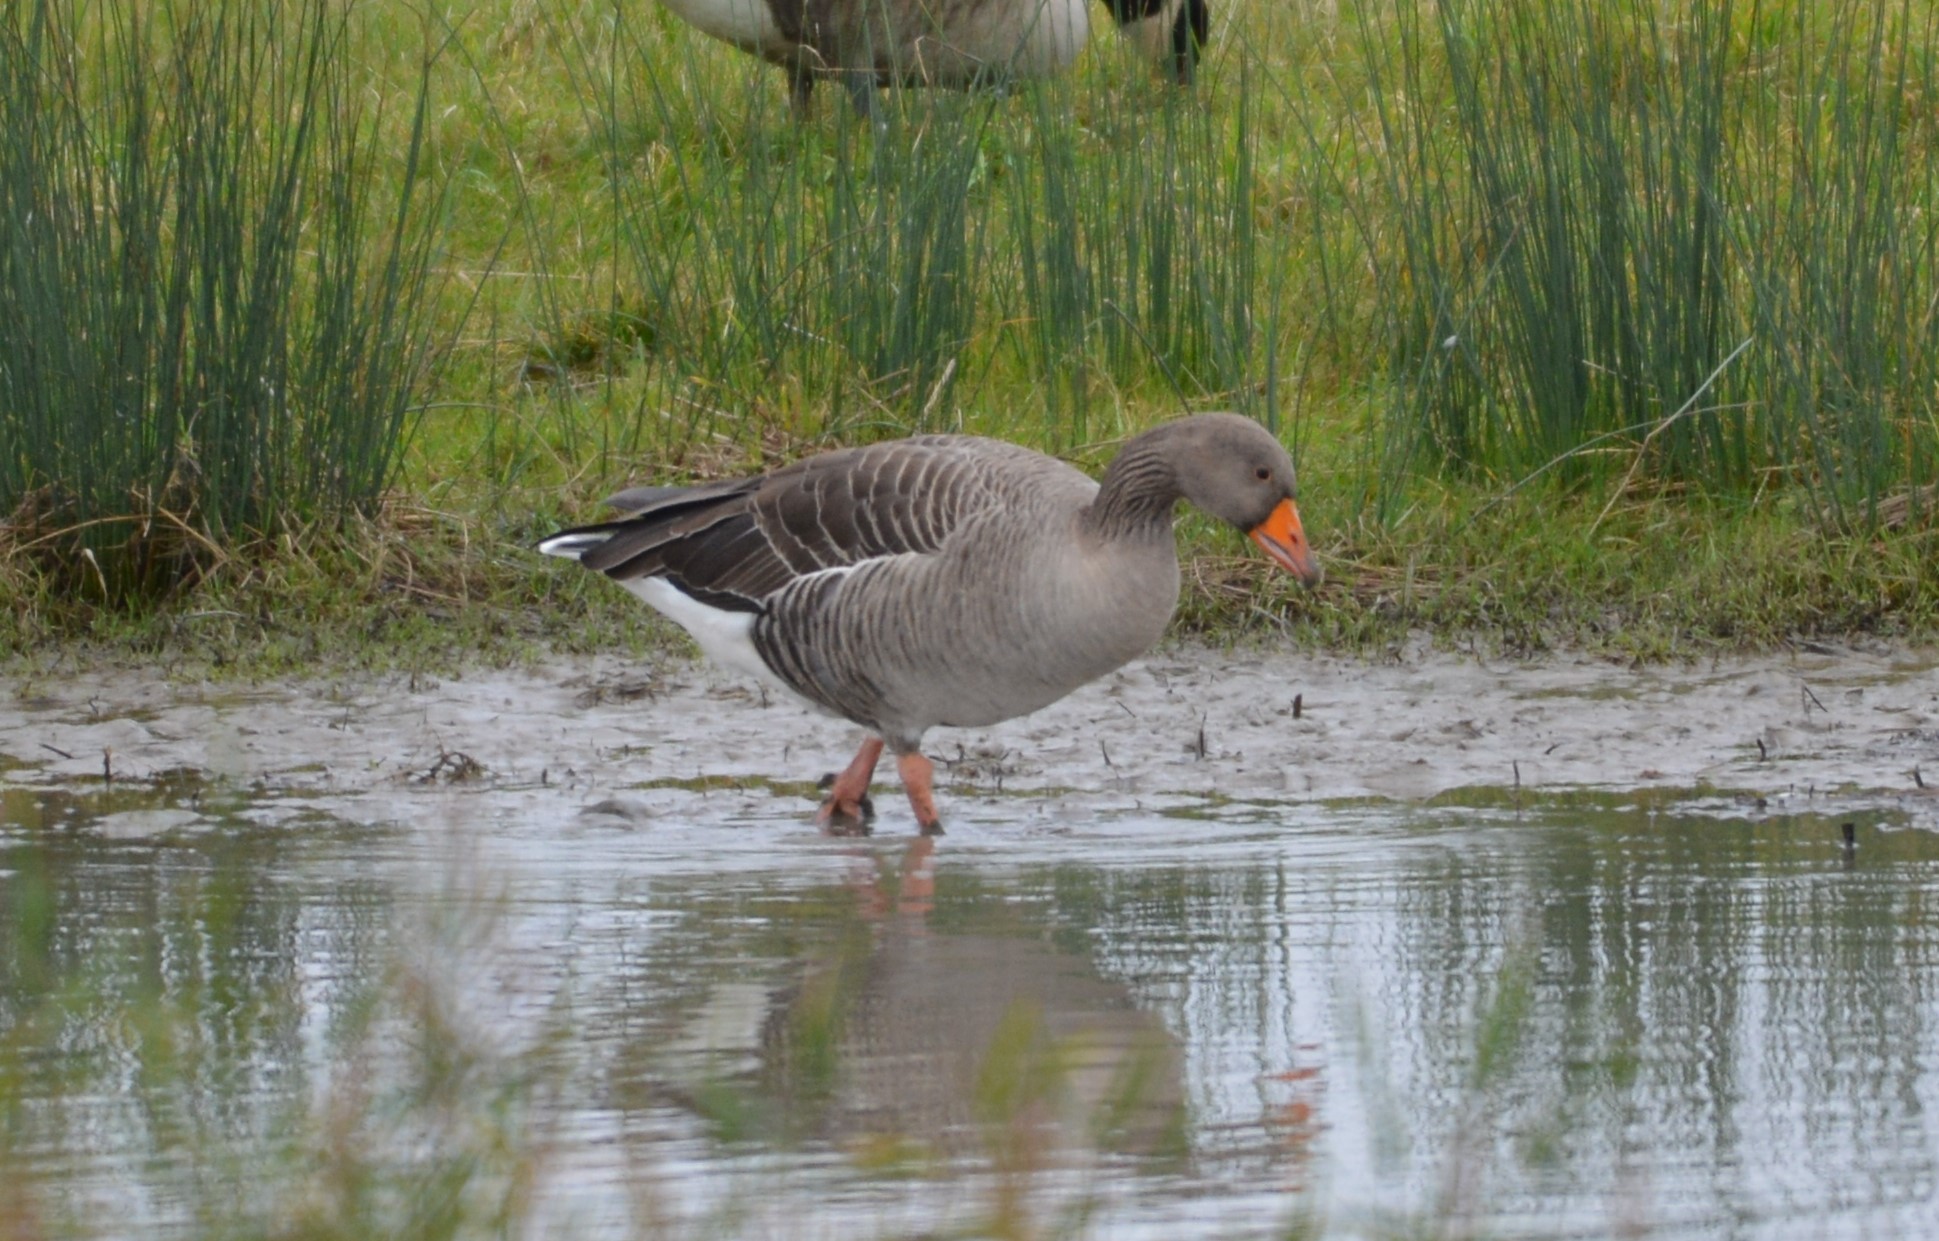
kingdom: Animalia
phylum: Chordata
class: Aves
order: Anseriformes
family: Anatidae
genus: Anser
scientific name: Anser anser
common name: Greylag goose
